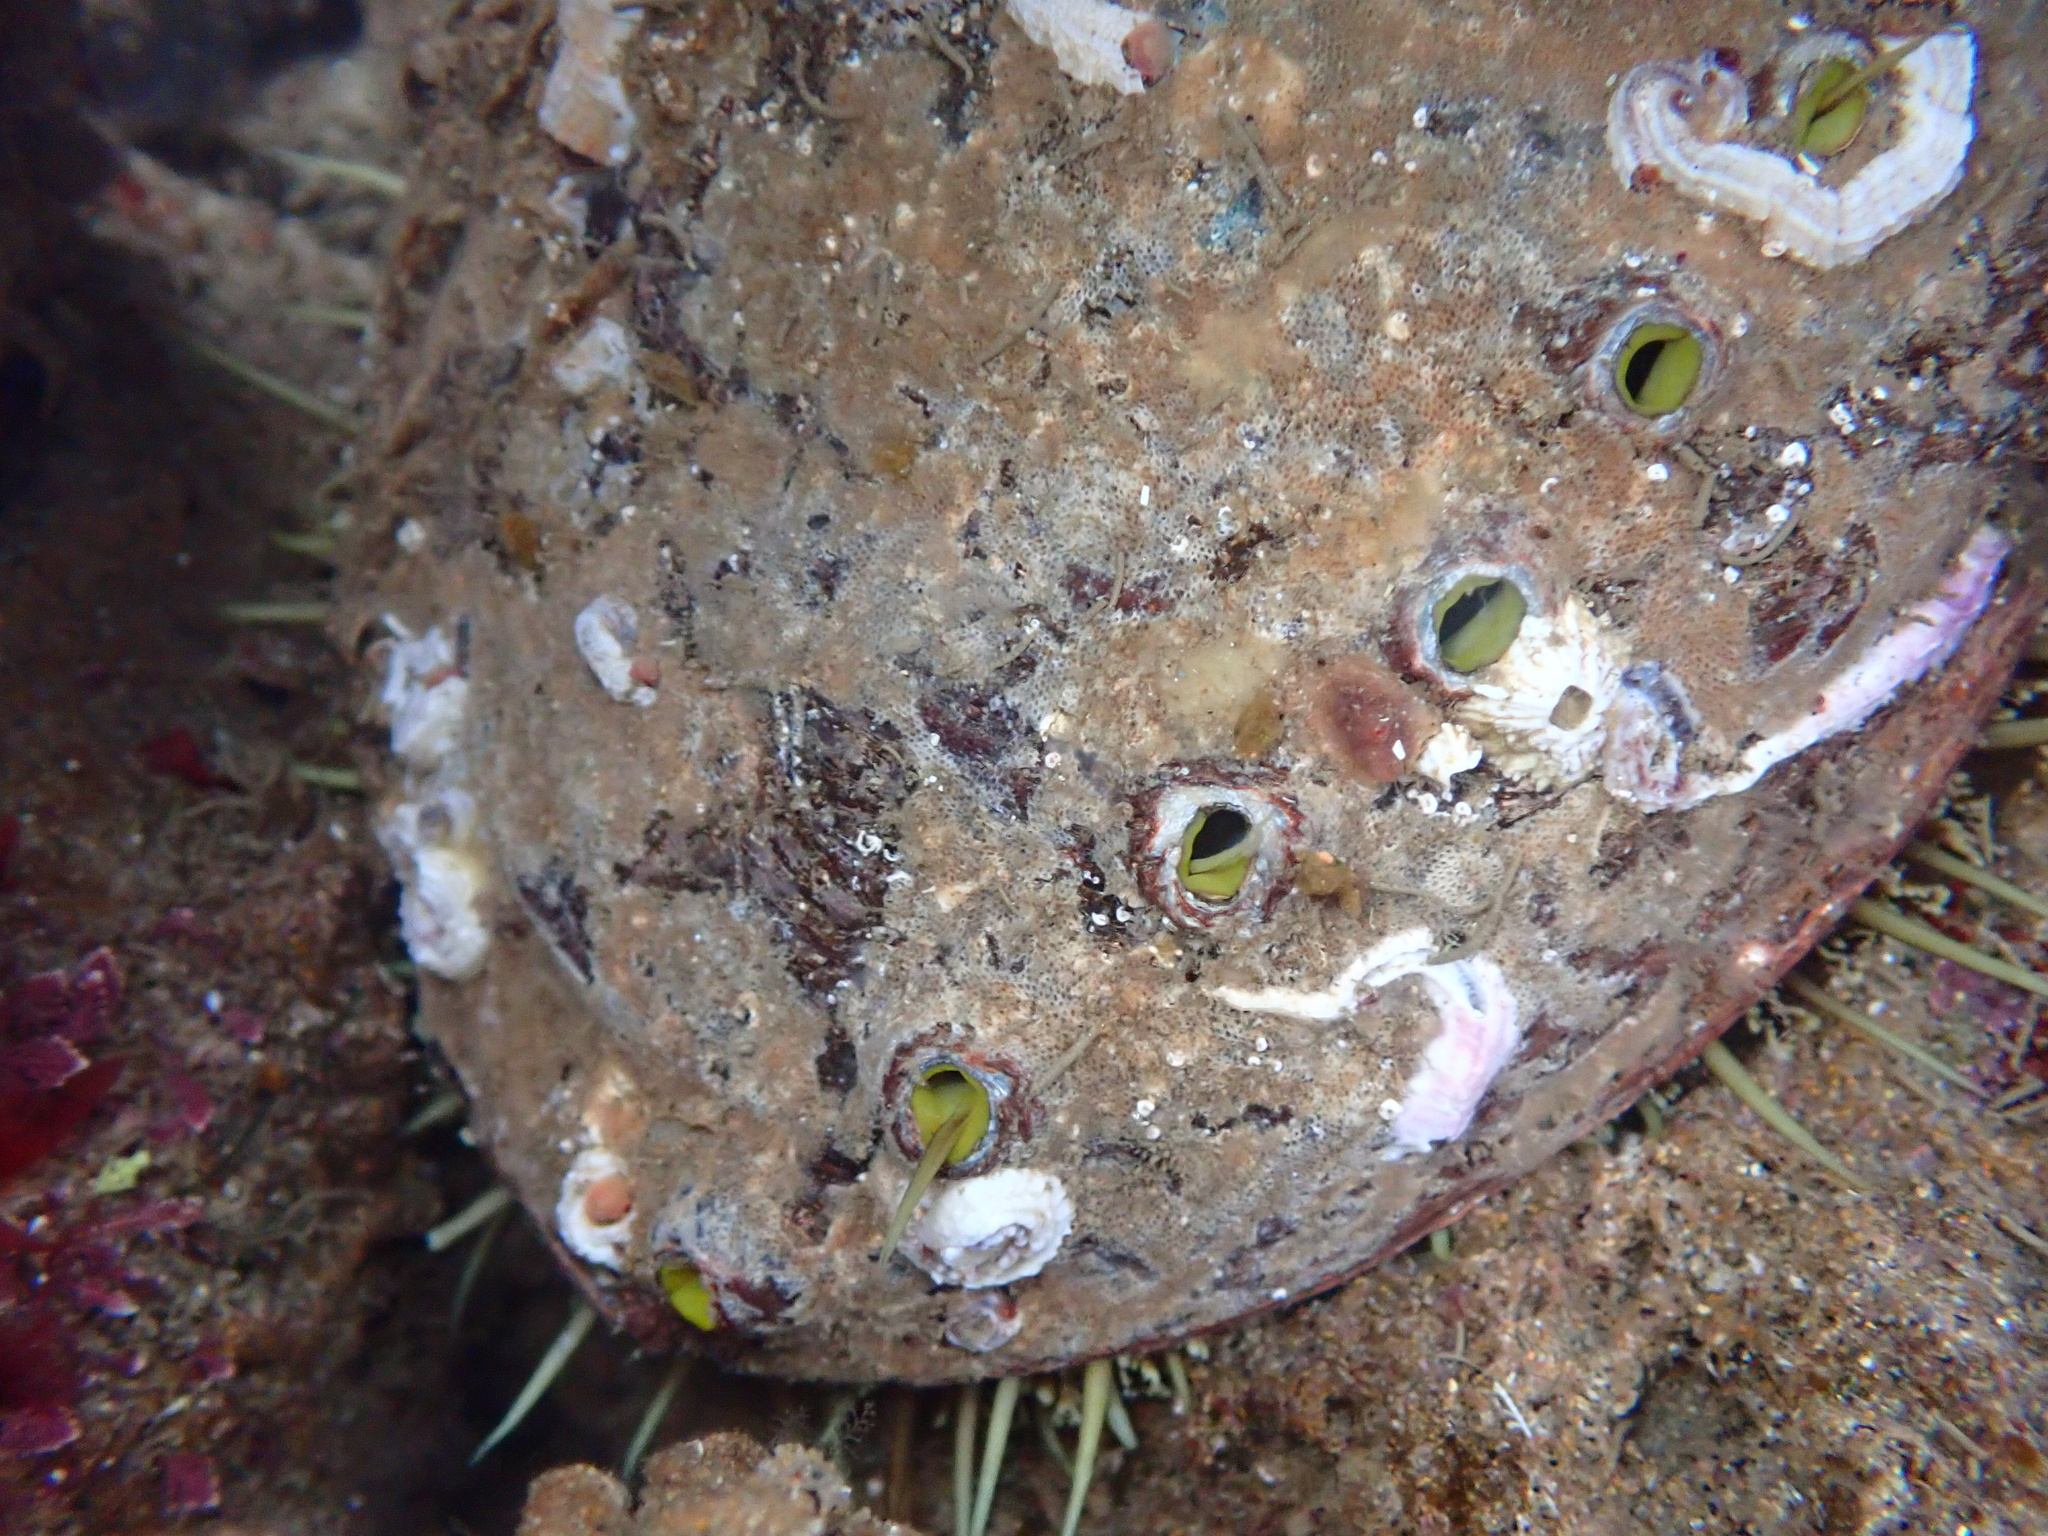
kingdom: Animalia
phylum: Mollusca
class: Gastropoda
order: Lepetellida
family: Haliotidae
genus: Haliotis
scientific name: Haliotis fulgens
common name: Green abalone
